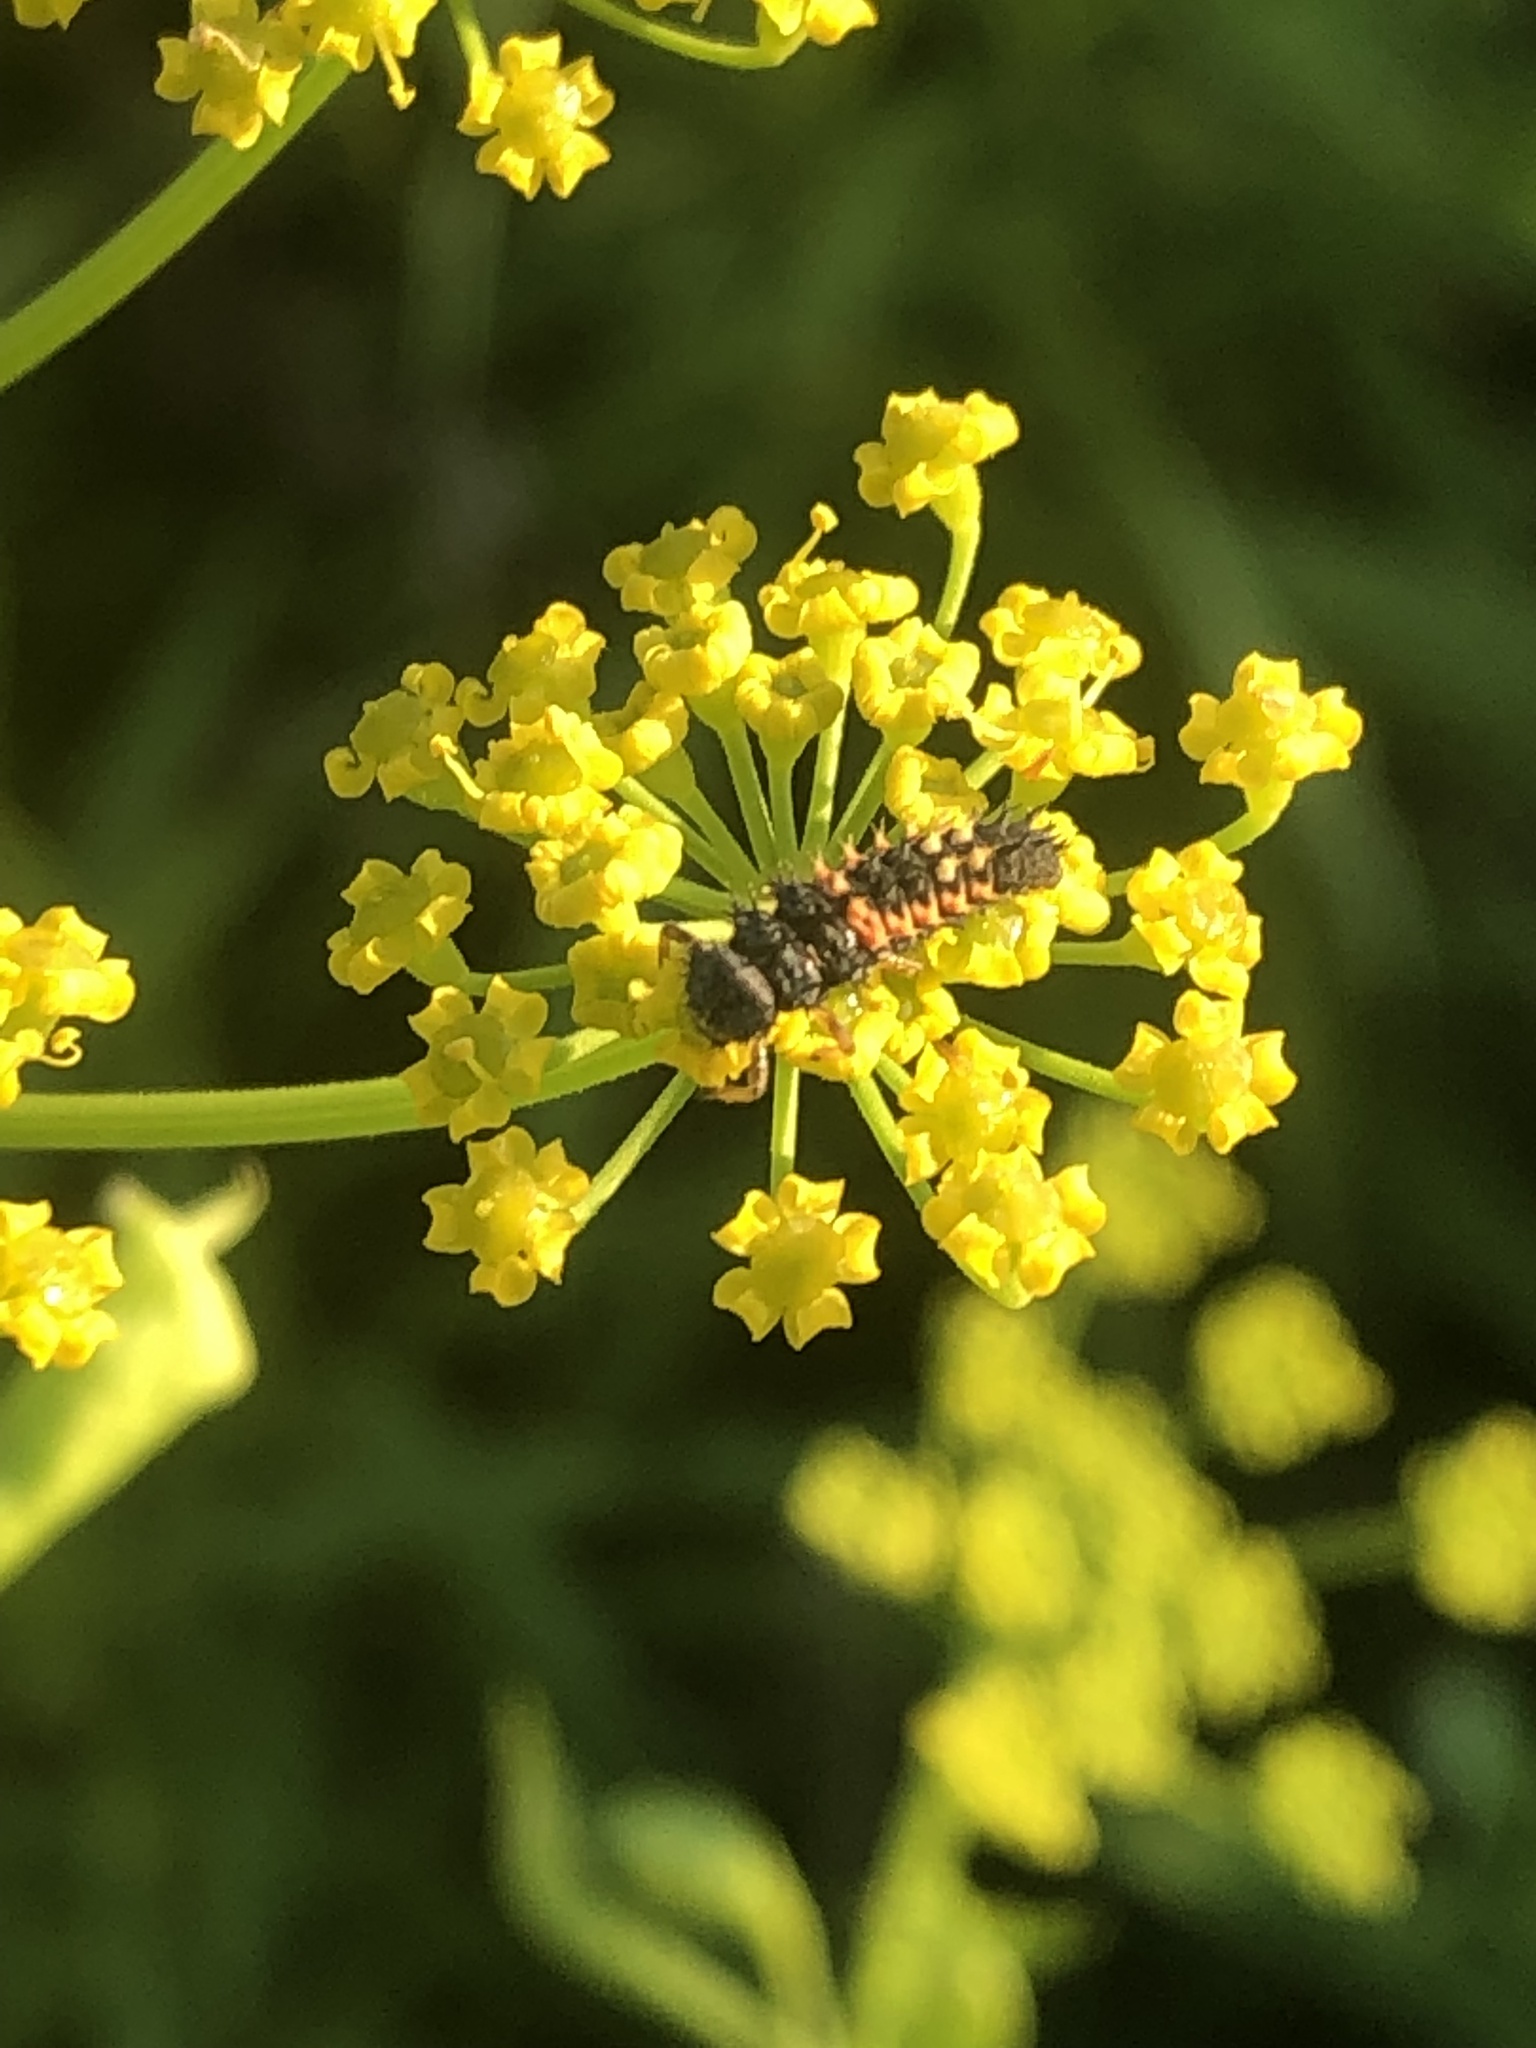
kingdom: Animalia
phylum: Arthropoda
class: Insecta
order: Coleoptera
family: Coccinellidae
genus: Harmonia
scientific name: Harmonia axyridis
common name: Harlequin ladybird
